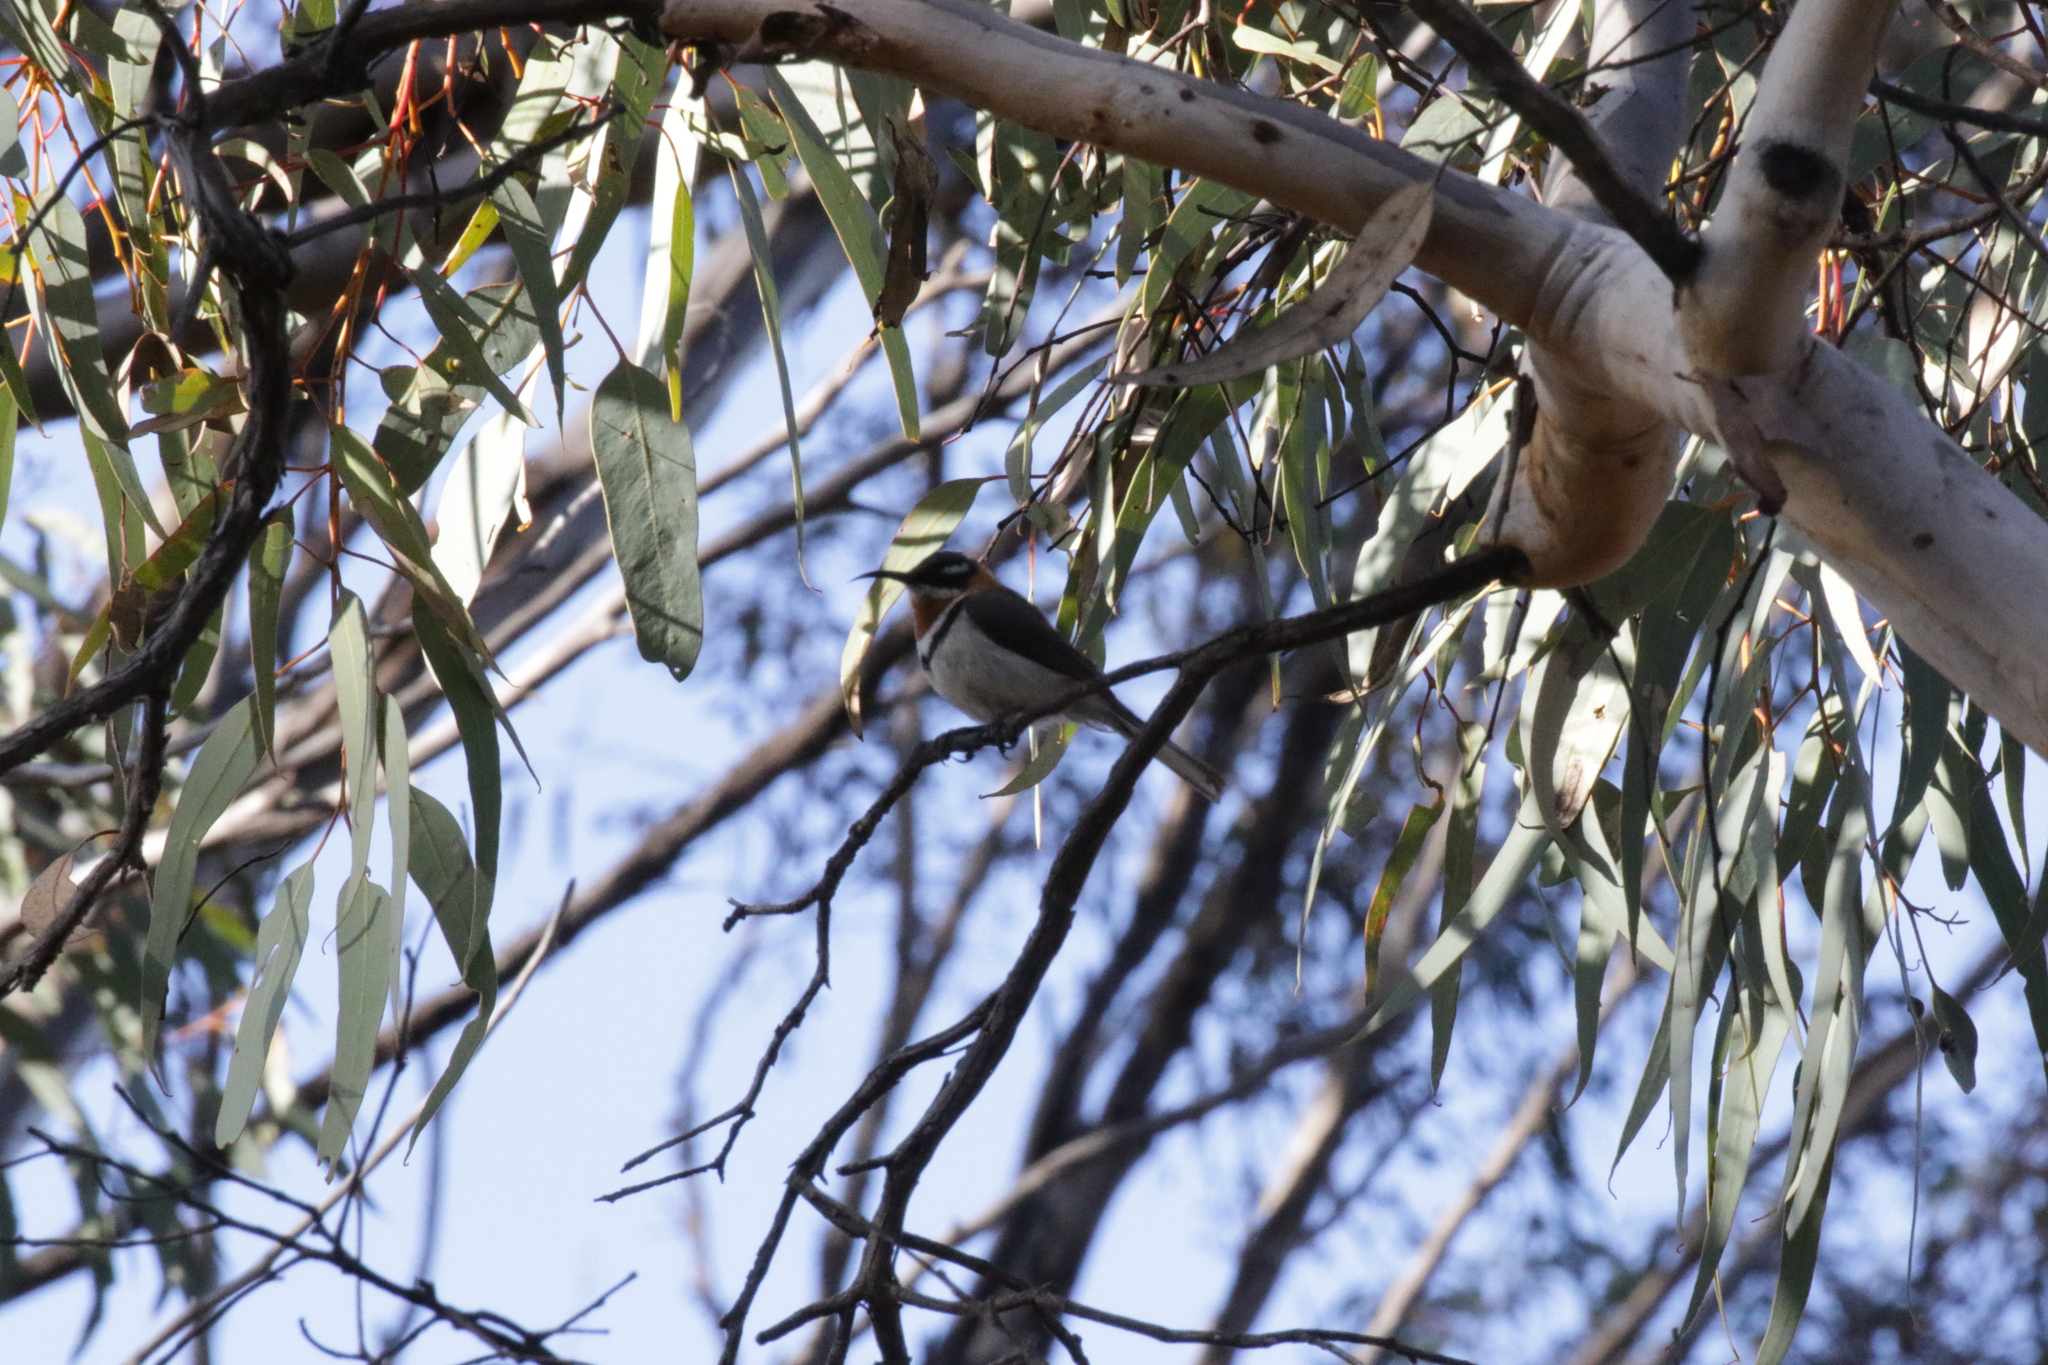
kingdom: Animalia
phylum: Chordata
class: Aves
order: Passeriformes
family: Meliphagidae
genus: Acanthorhynchus
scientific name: Acanthorhynchus superciliosus
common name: Western spinebill
